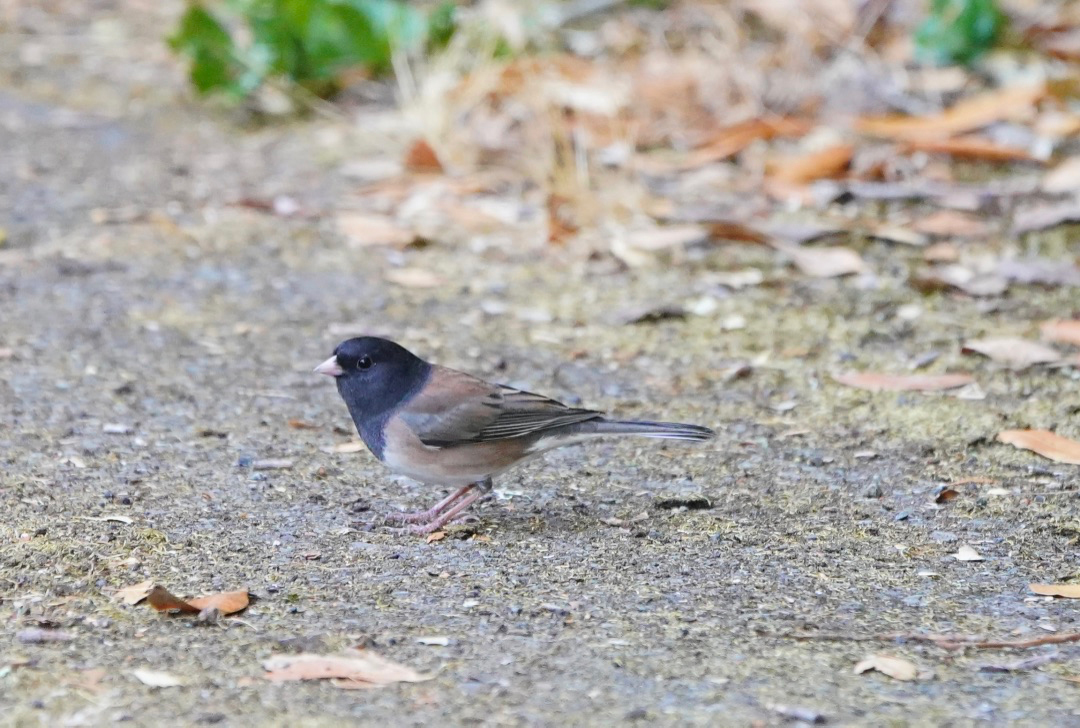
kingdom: Animalia
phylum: Chordata
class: Aves
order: Passeriformes
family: Passerellidae
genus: Junco
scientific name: Junco hyemalis
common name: Dark-eyed junco
